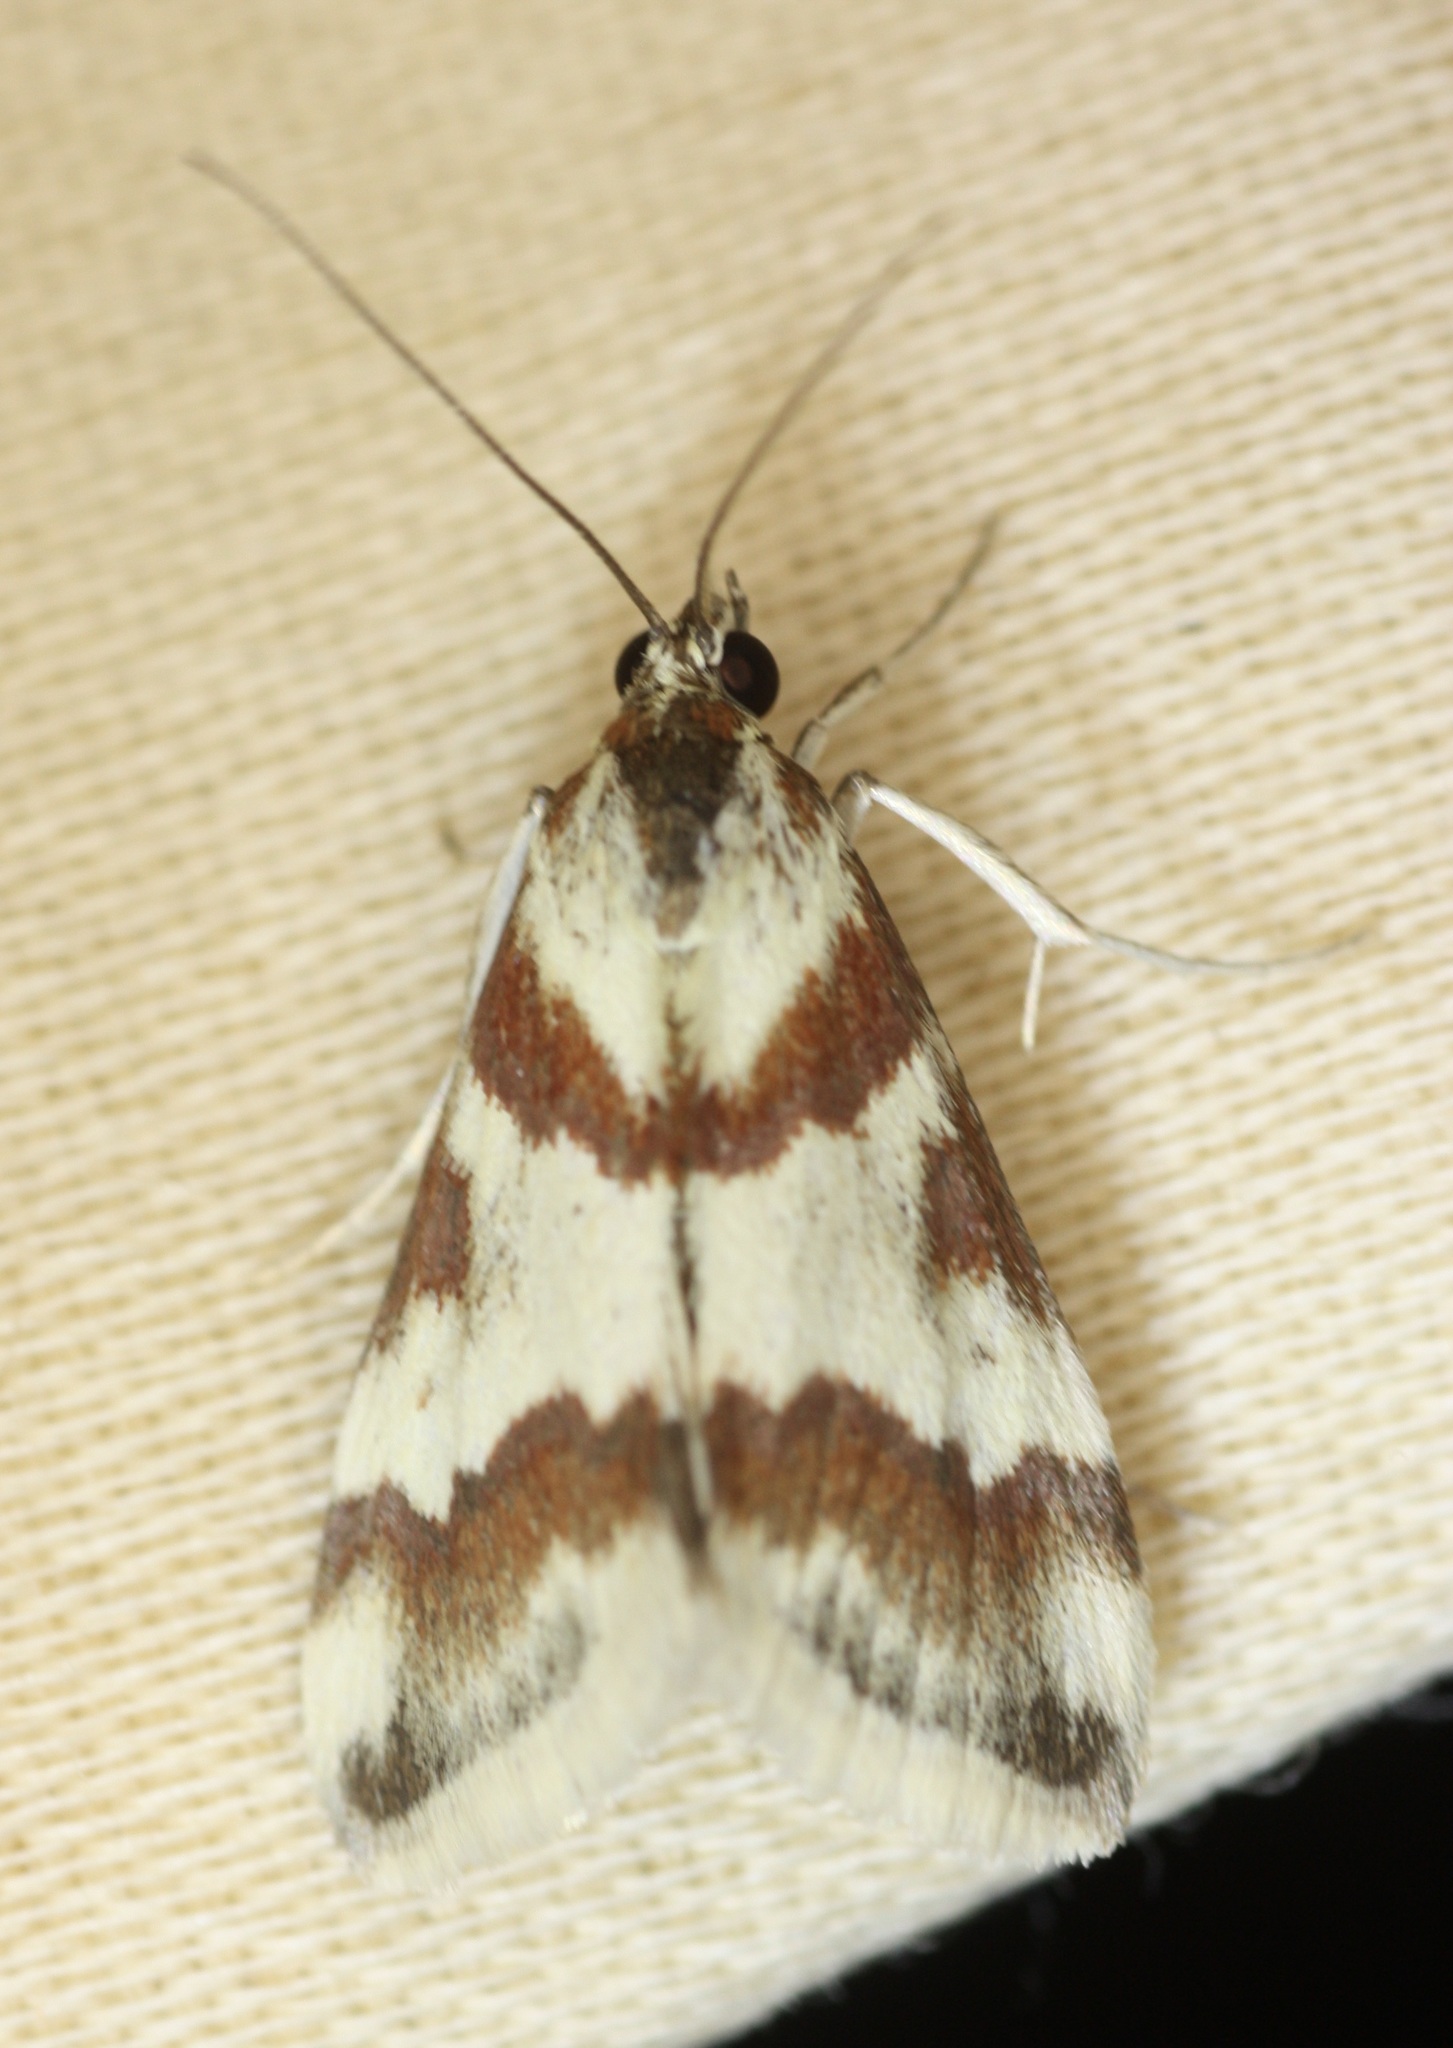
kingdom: Animalia
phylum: Arthropoda
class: Insecta
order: Lepidoptera
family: Crambidae
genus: Noctuelia
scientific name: Noctuelia Mimoschinia rufofascialis
